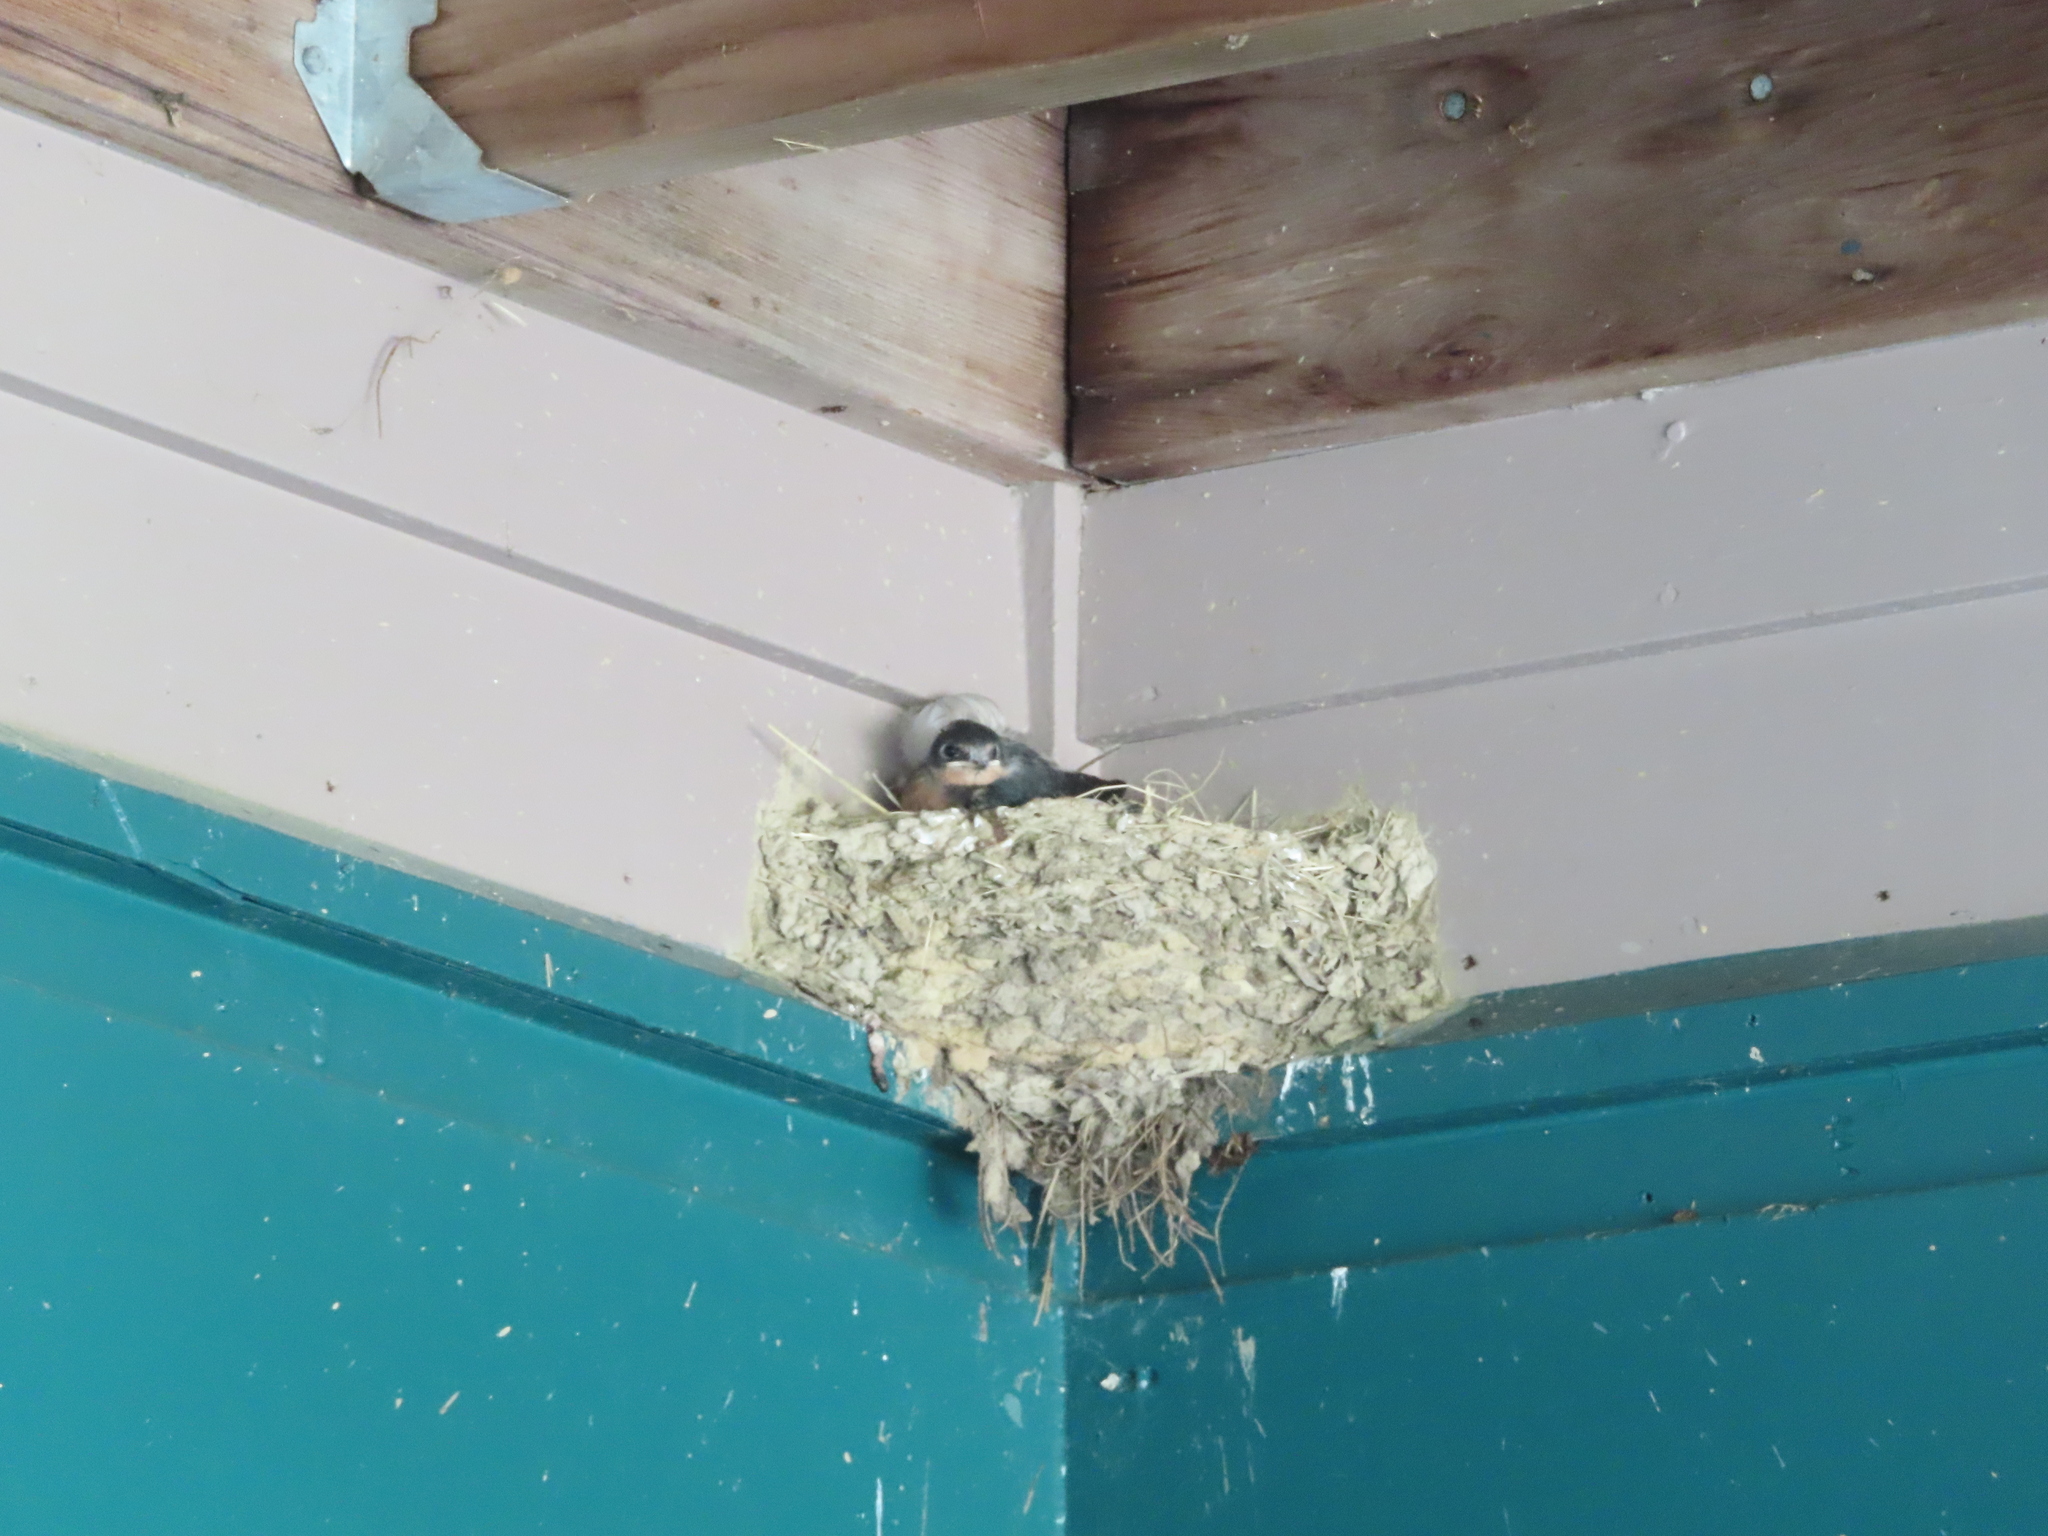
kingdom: Animalia
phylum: Chordata
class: Aves
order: Passeriformes
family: Hirundinidae
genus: Hirundo
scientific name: Hirundo rustica
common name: Barn swallow
